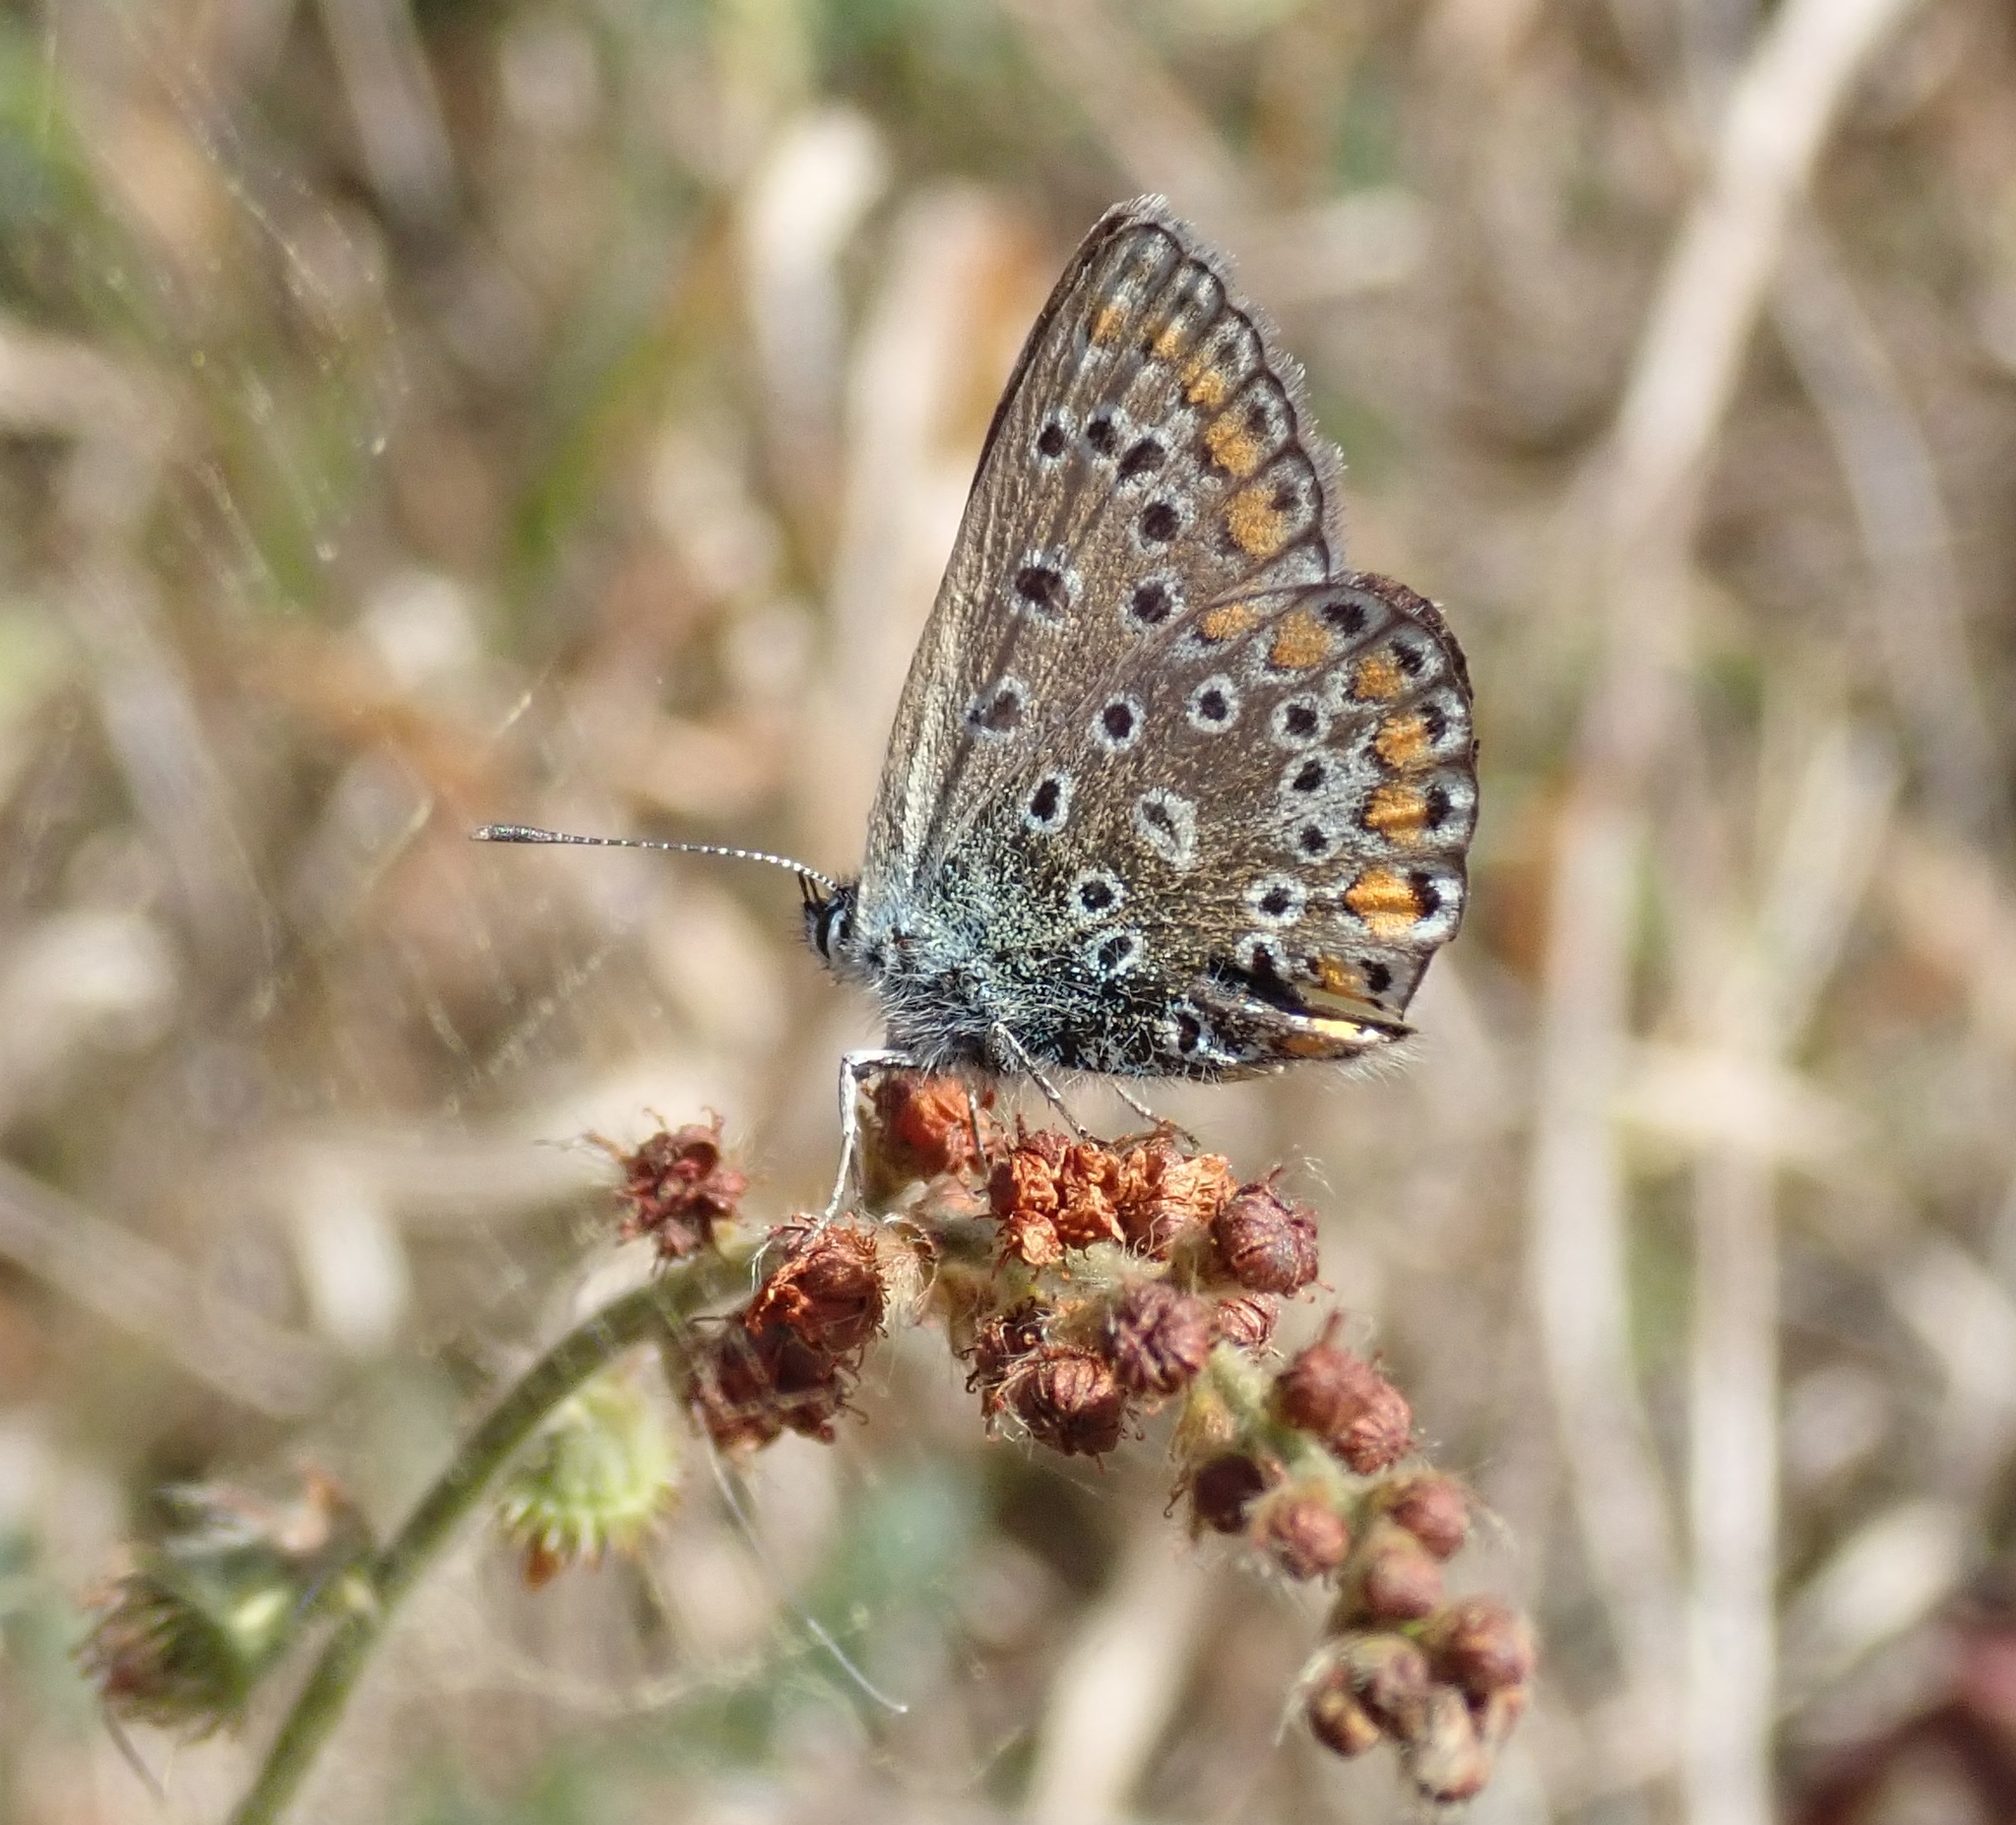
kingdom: Animalia
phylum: Arthropoda
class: Insecta
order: Lepidoptera
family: Lycaenidae
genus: Polyommatus
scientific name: Polyommatus icarus
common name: Common blue
